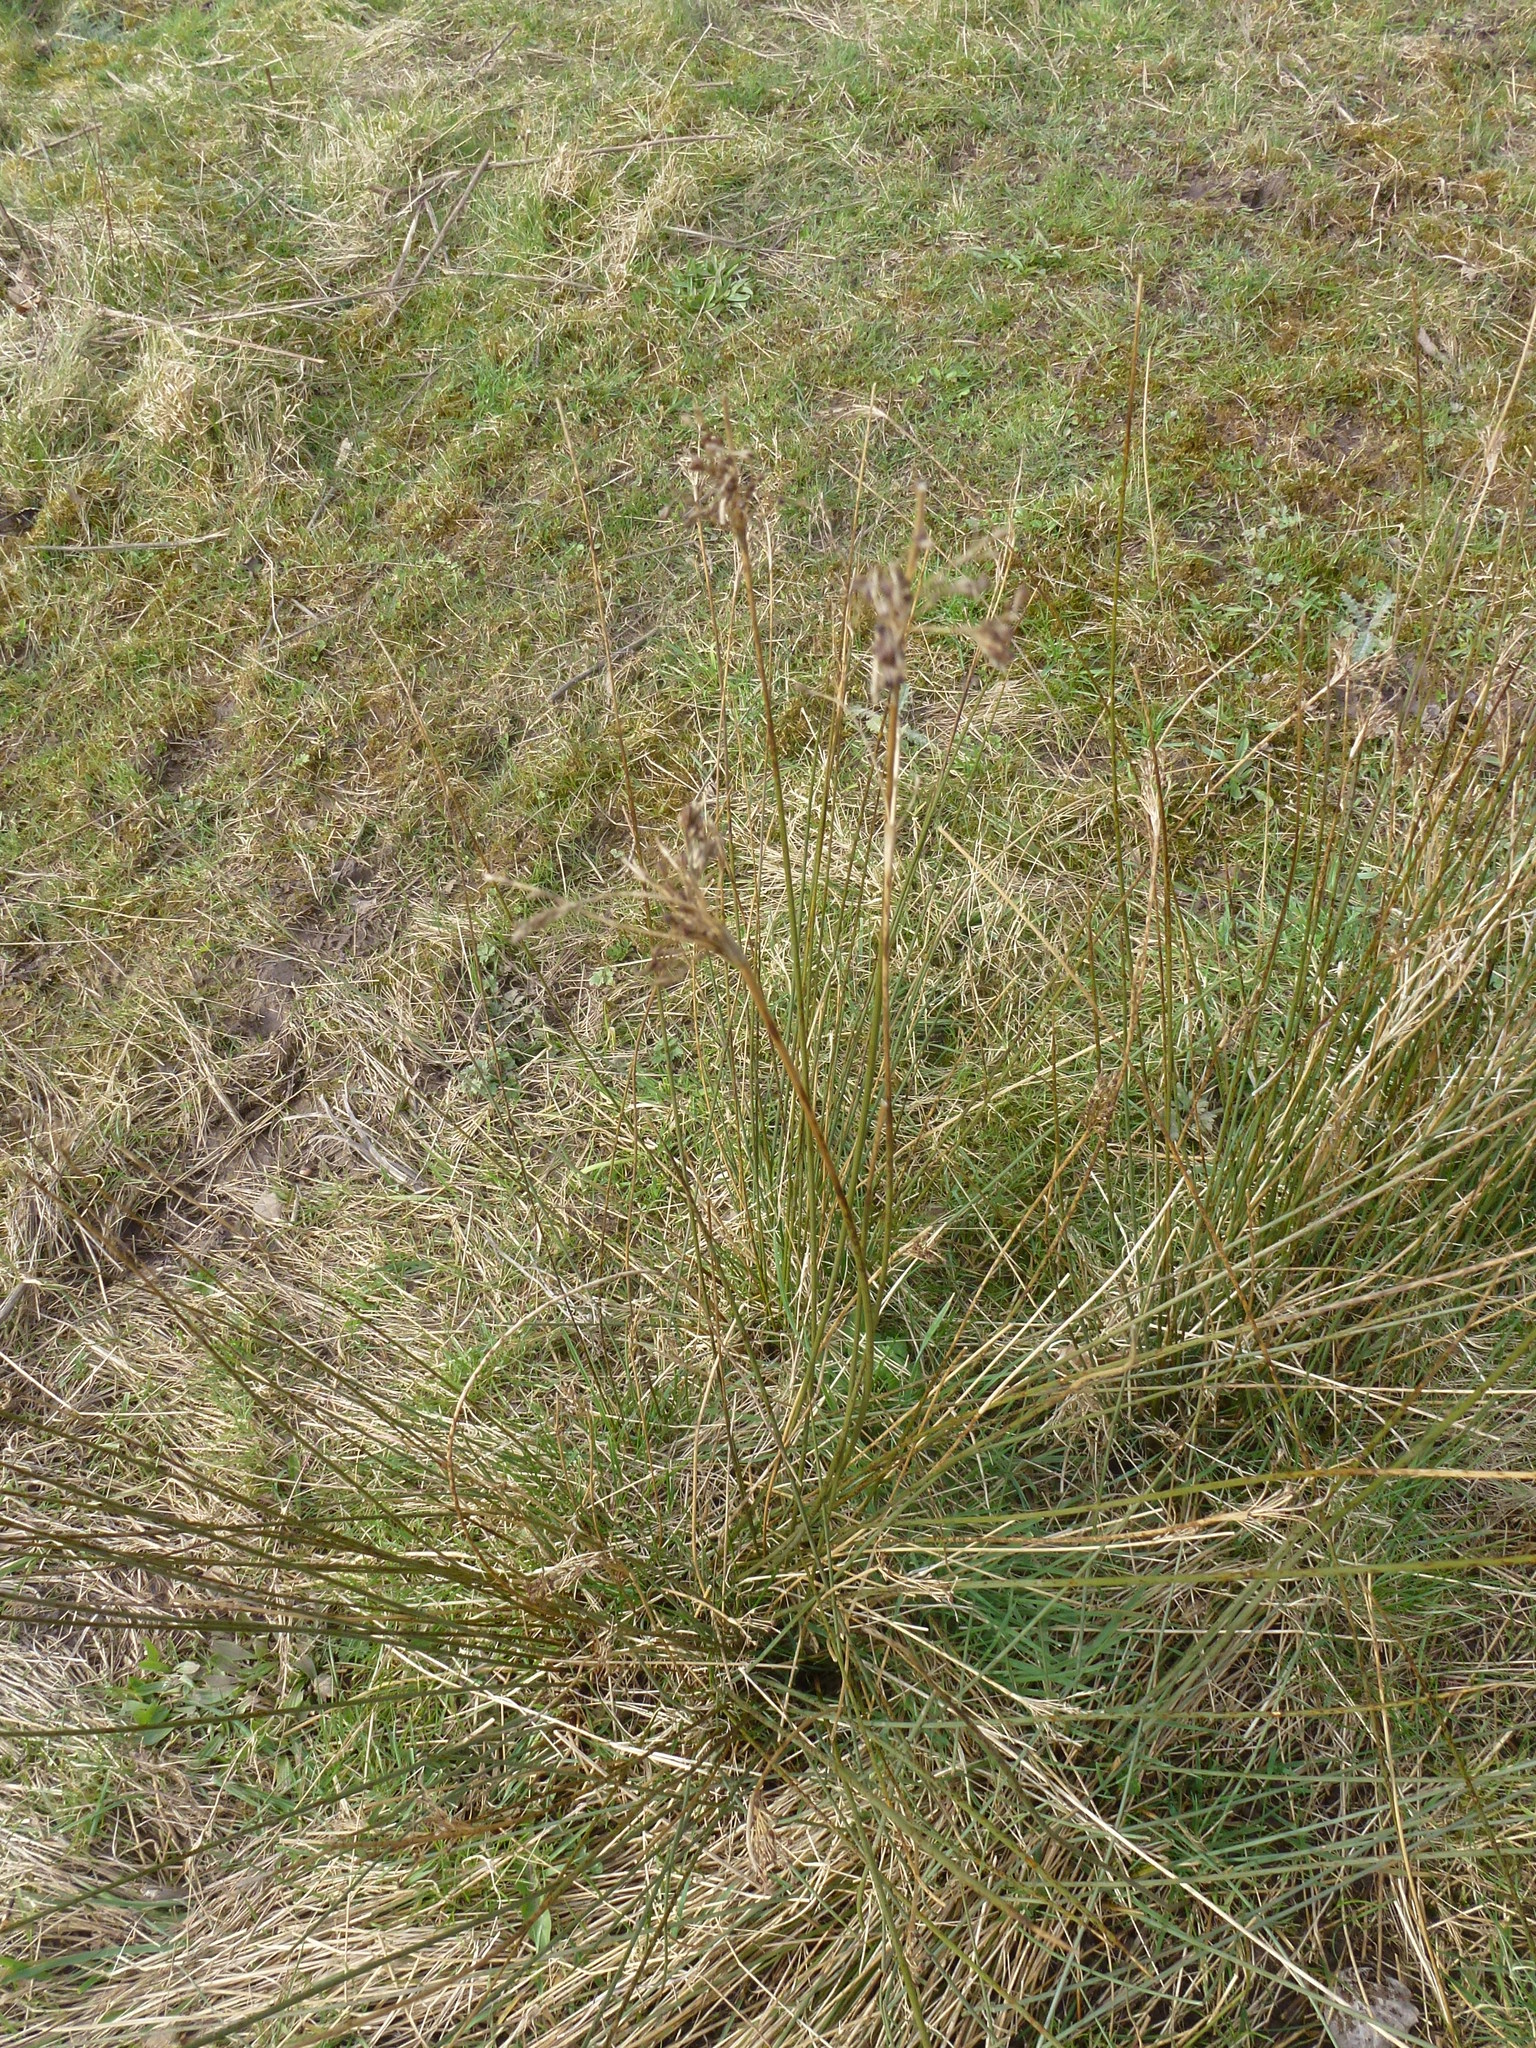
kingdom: Plantae
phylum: Tracheophyta
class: Liliopsida
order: Poales
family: Juncaceae
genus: Juncus
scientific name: Juncus inflexus
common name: Hard rush
